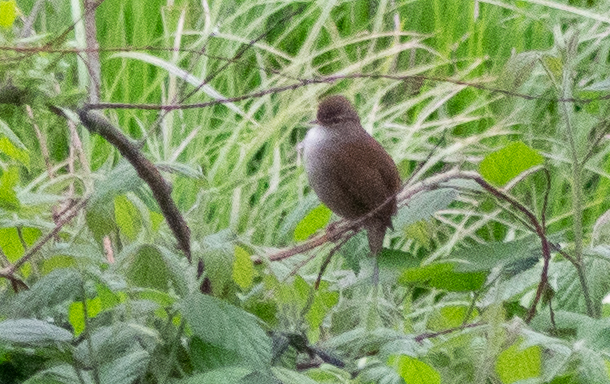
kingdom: Animalia
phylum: Chordata
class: Aves
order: Passeriformes
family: Cettiidae
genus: Cettia
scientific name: Cettia cetti
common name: Cetti's warbler
